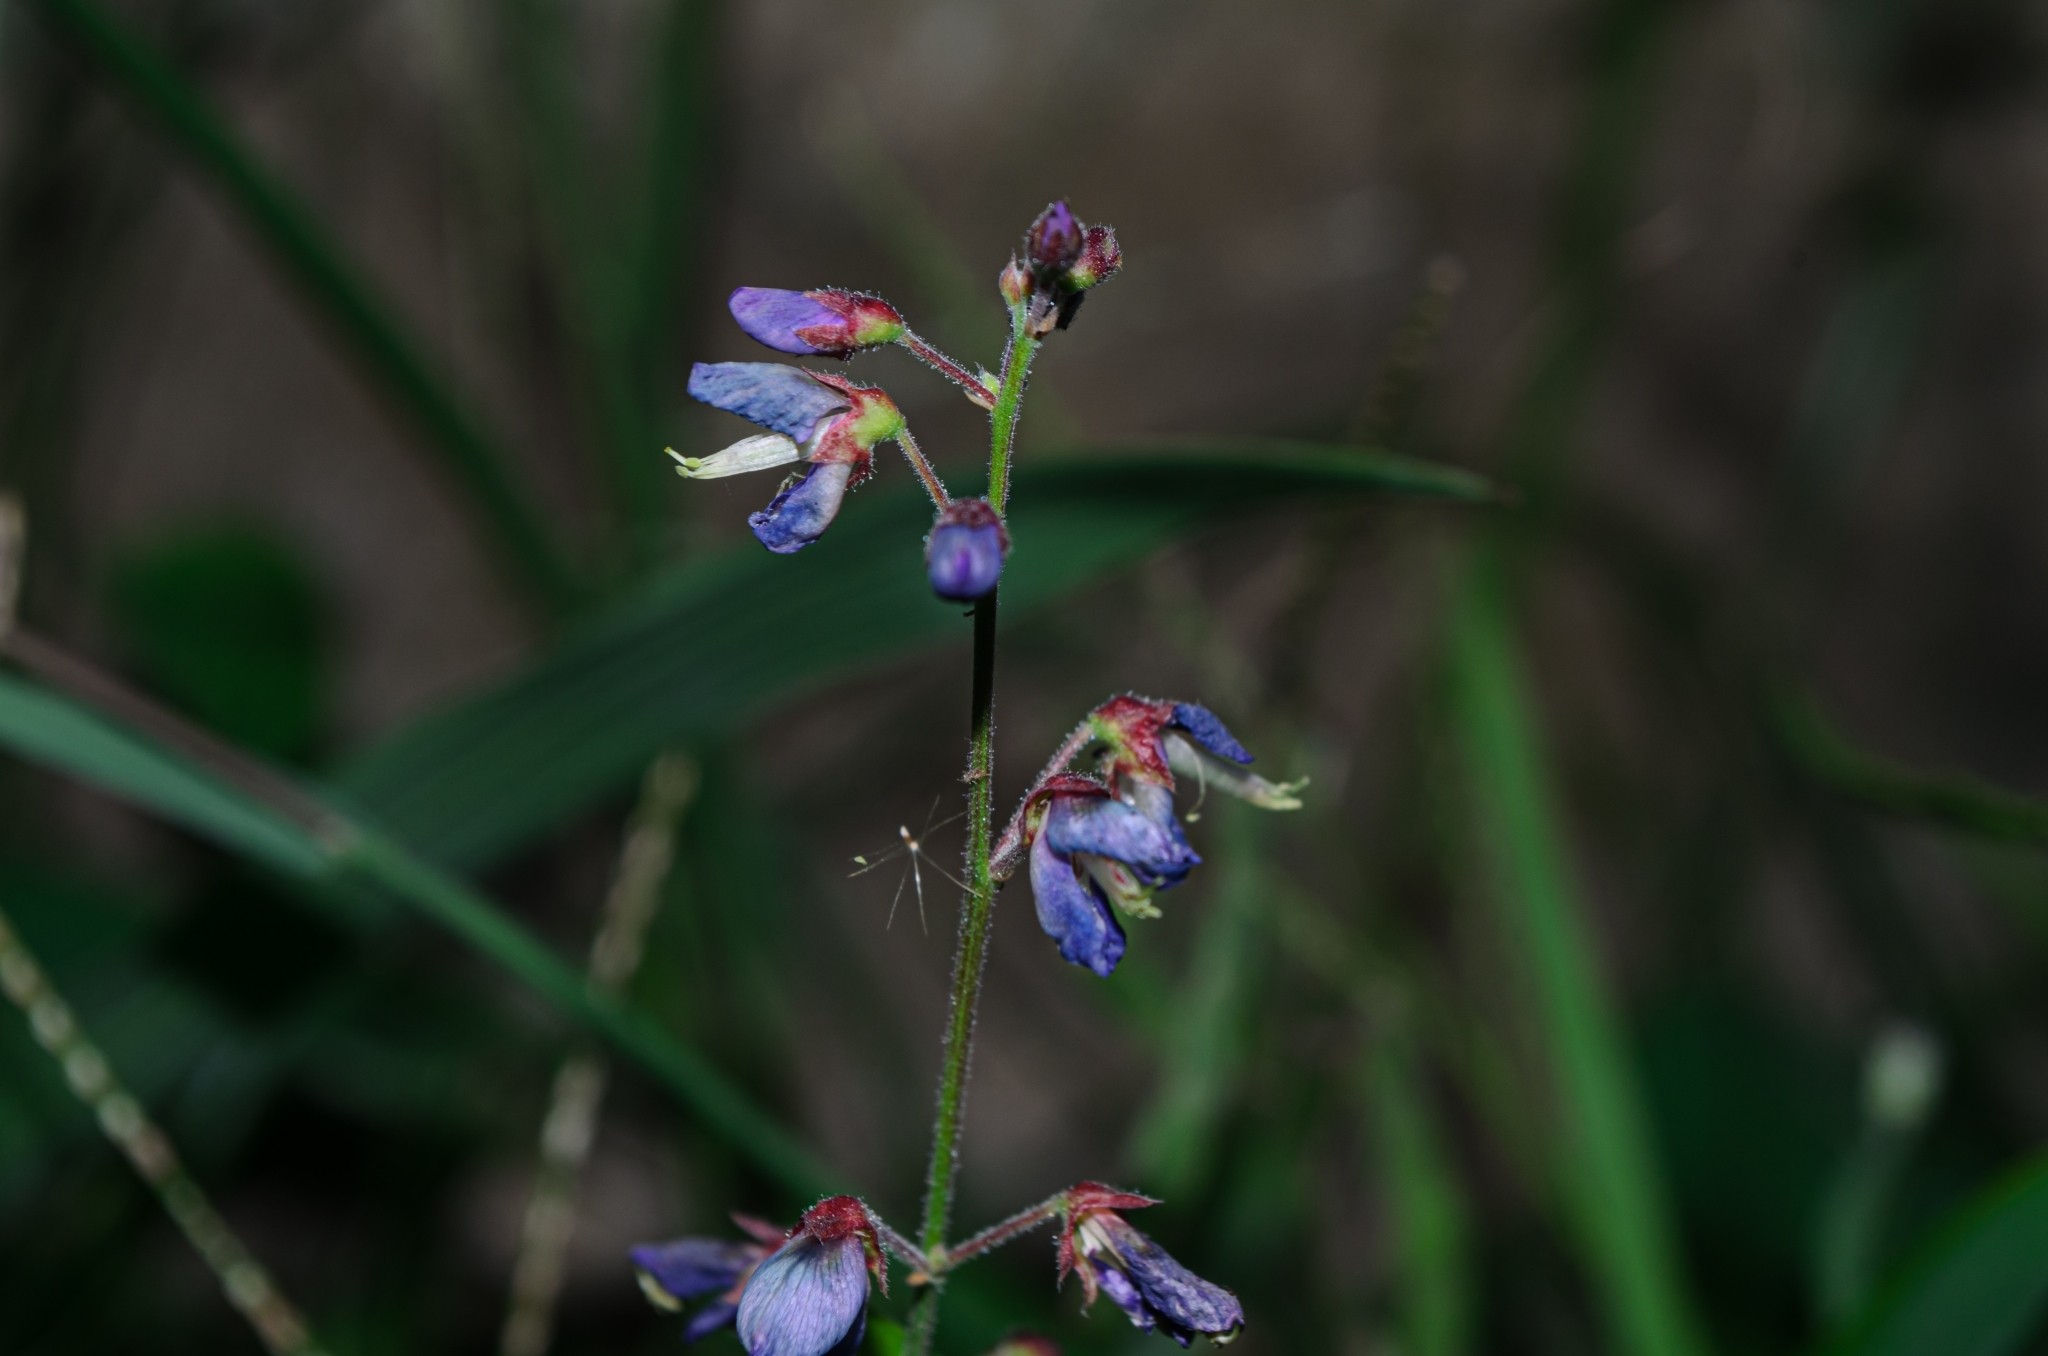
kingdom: Plantae
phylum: Tracheophyta
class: Magnoliopsida
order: Fabales
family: Fabaceae
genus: Desmodium
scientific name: Desmodium incanum
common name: Tickclover
